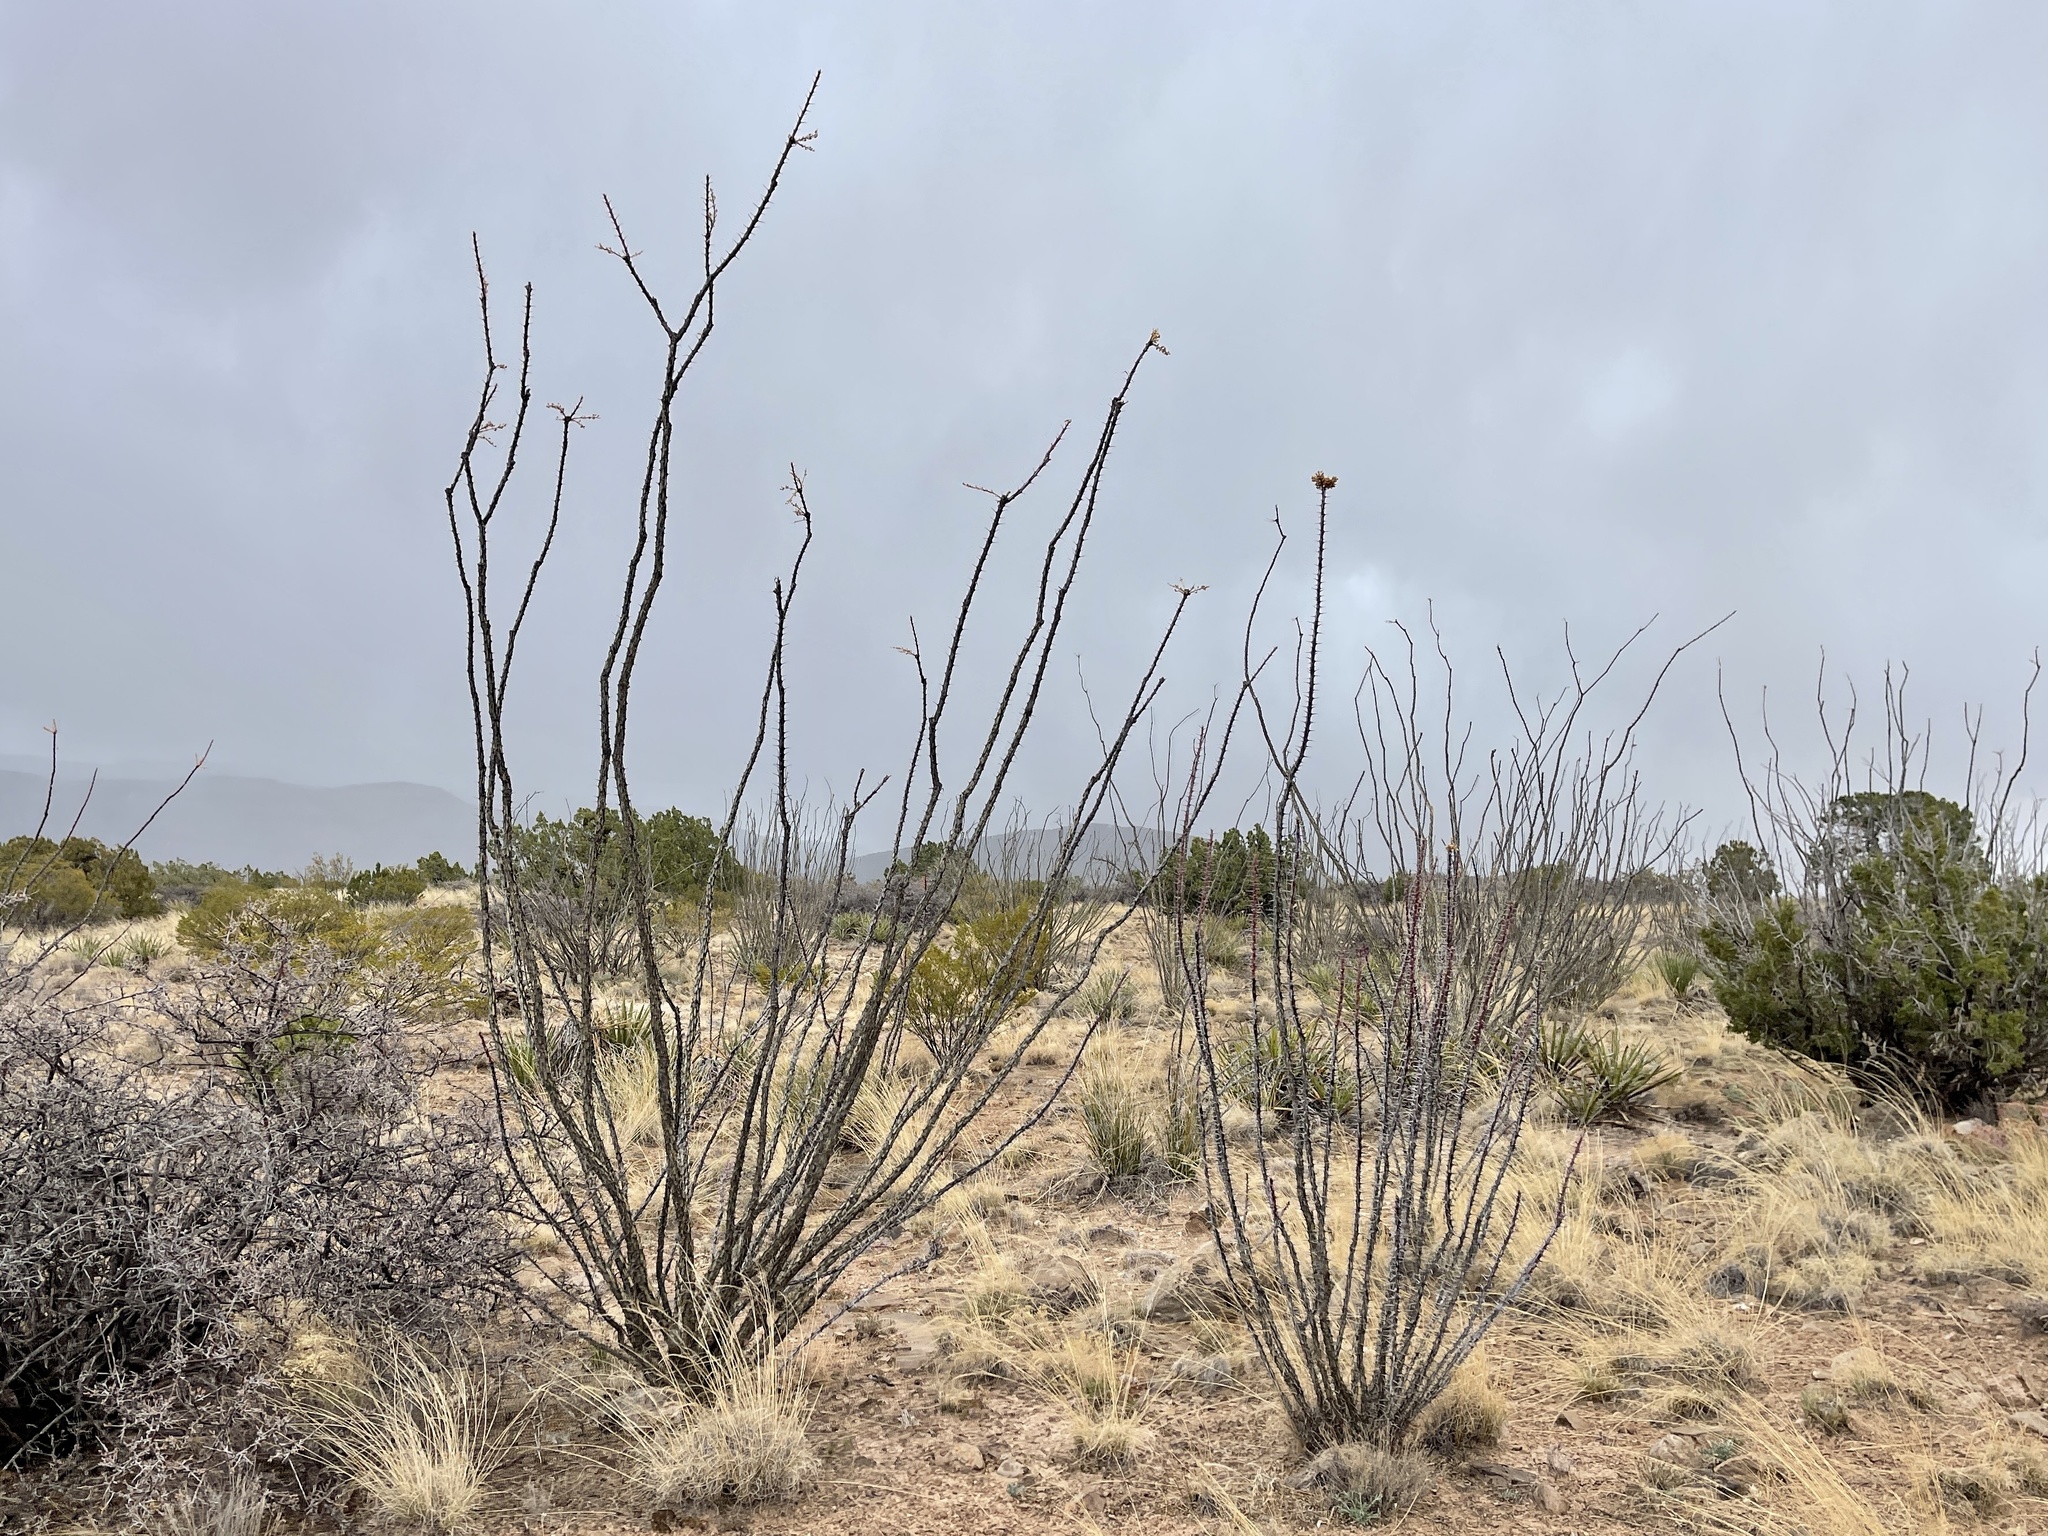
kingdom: Plantae
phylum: Tracheophyta
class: Magnoliopsida
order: Ericales
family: Fouquieriaceae
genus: Fouquieria
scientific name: Fouquieria splendens
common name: Vine-cactus
